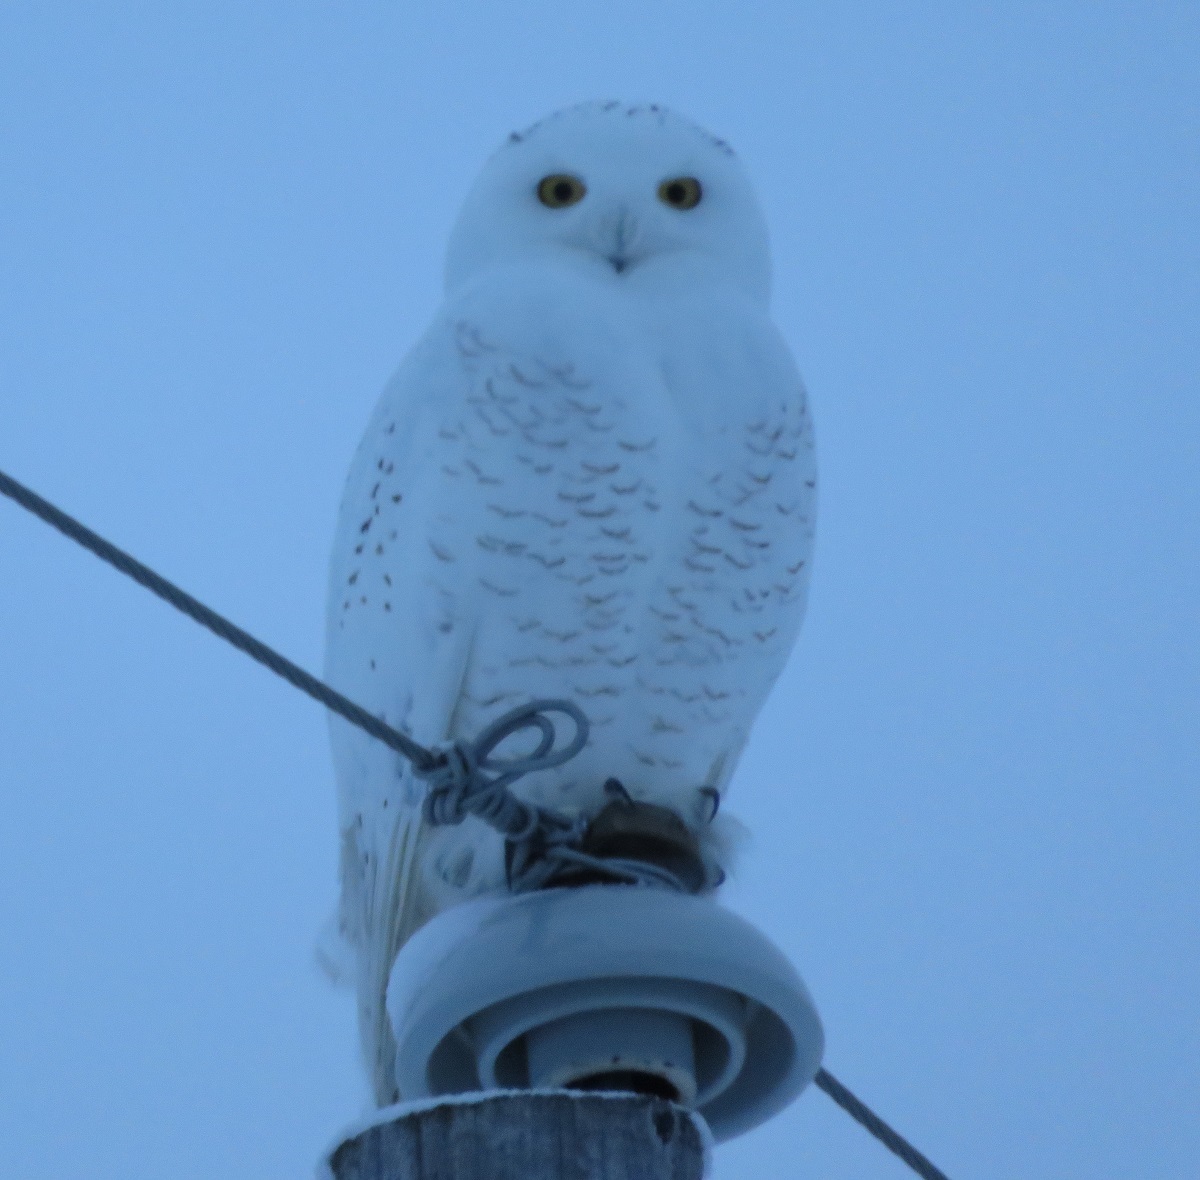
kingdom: Animalia
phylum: Chordata
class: Aves
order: Strigiformes
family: Strigidae
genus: Bubo
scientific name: Bubo scandiacus
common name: Snowy owl
